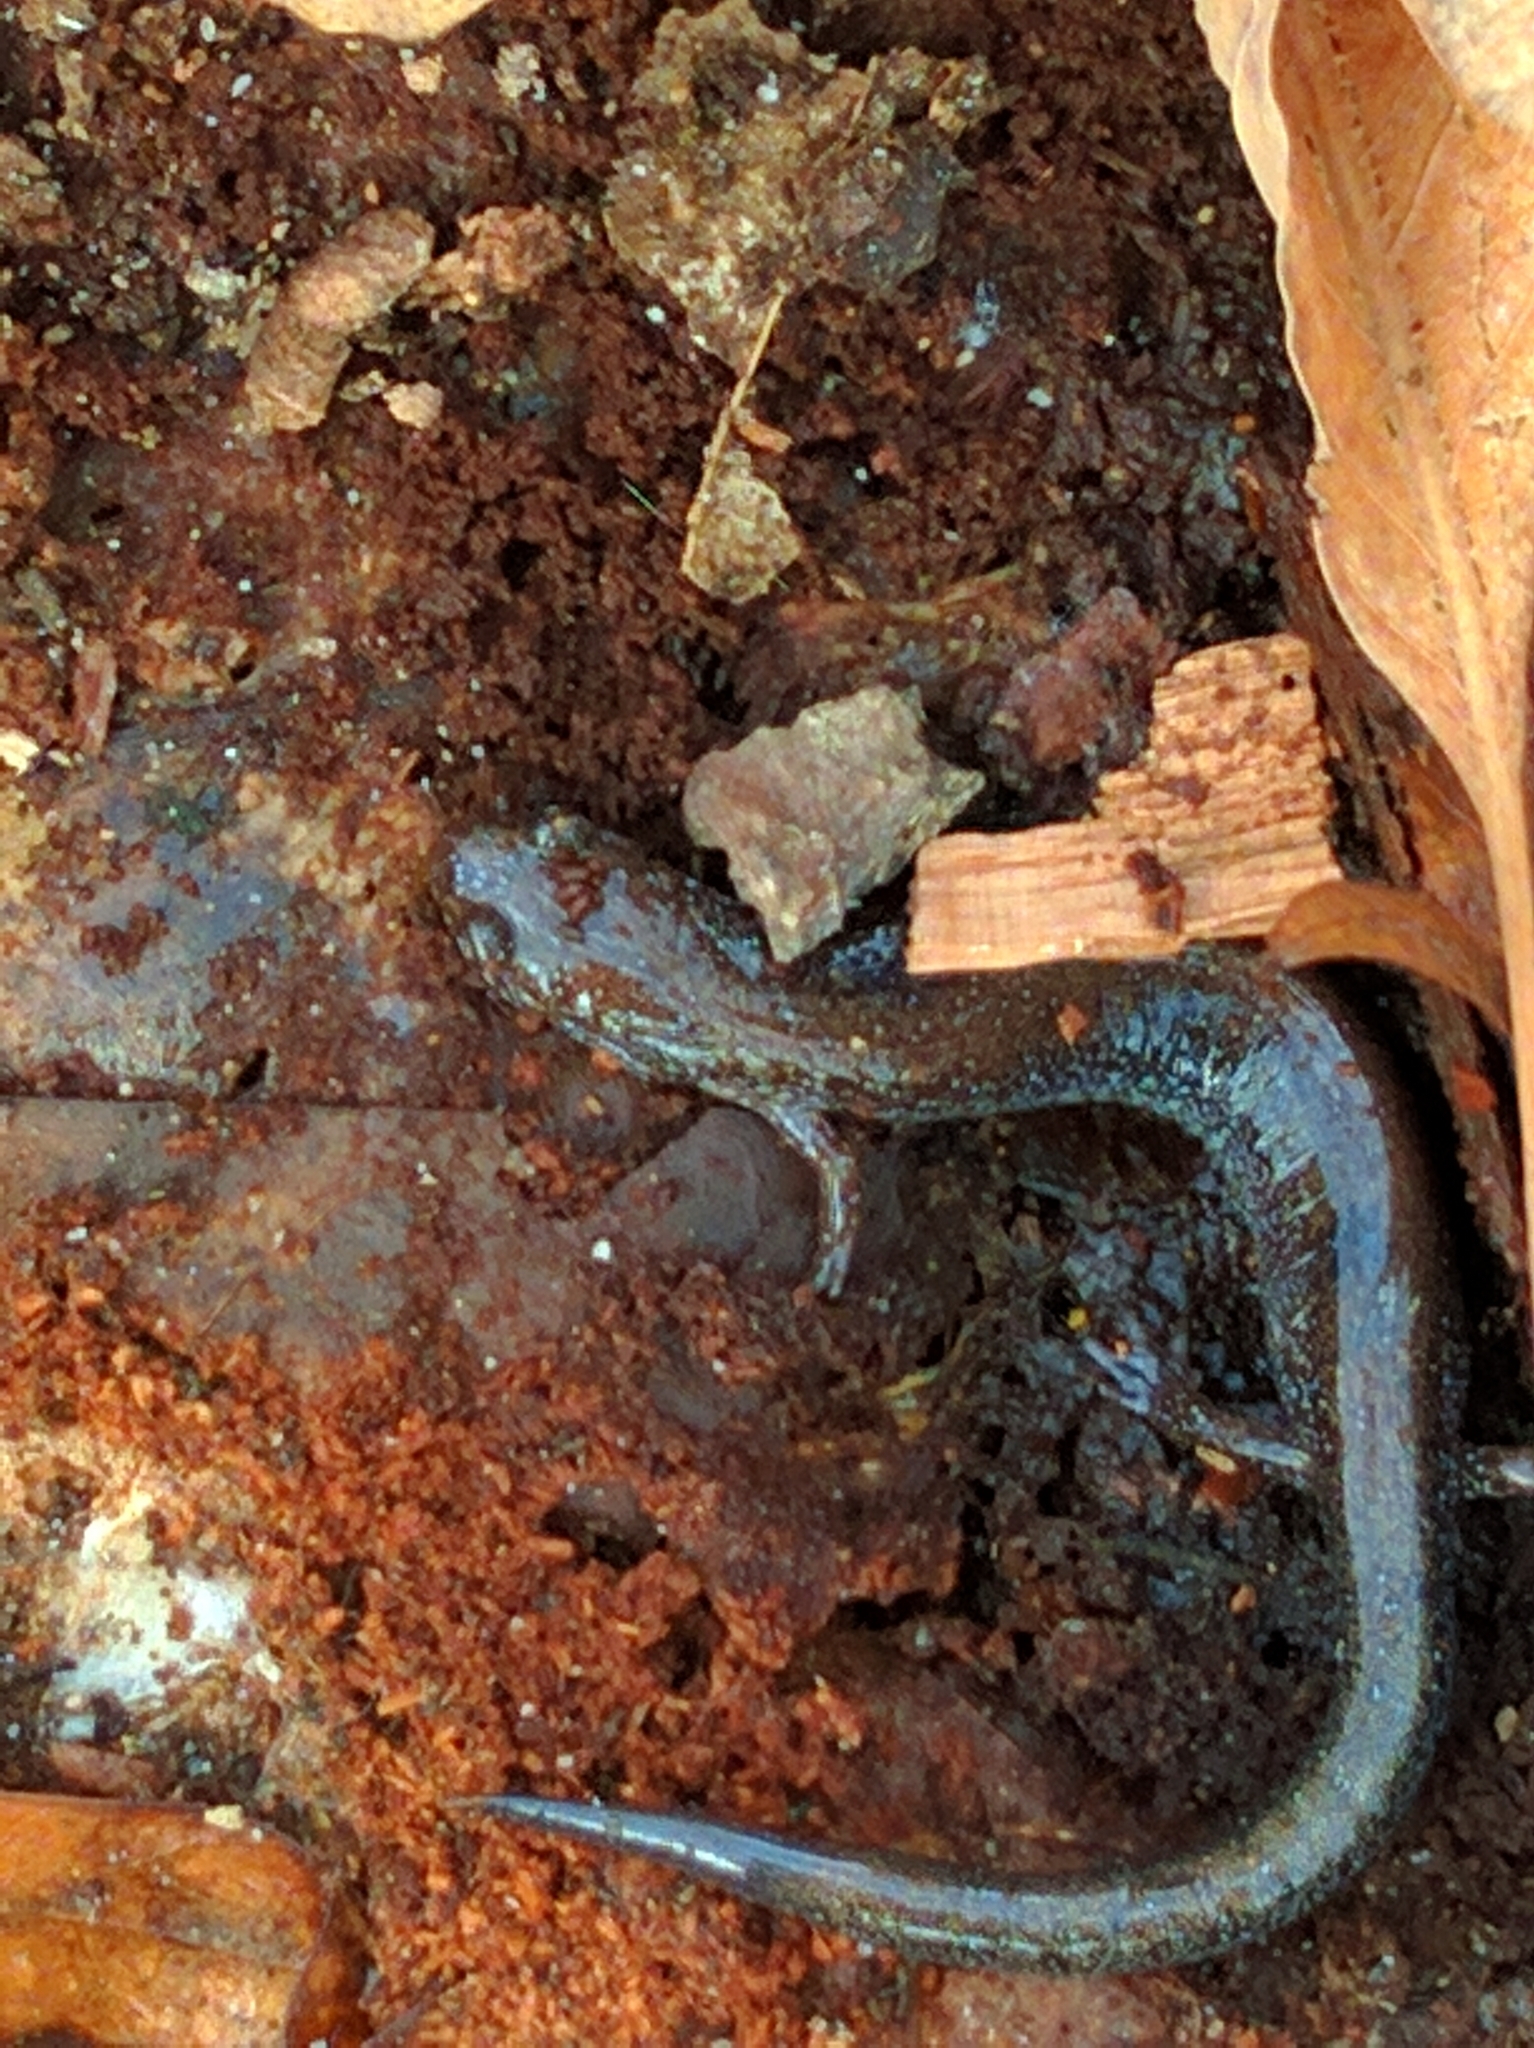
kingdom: Animalia
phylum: Chordata
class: Amphibia
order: Caudata
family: Plethodontidae
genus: Plethodon
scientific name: Plethodon cinereus
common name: Redback salamander
